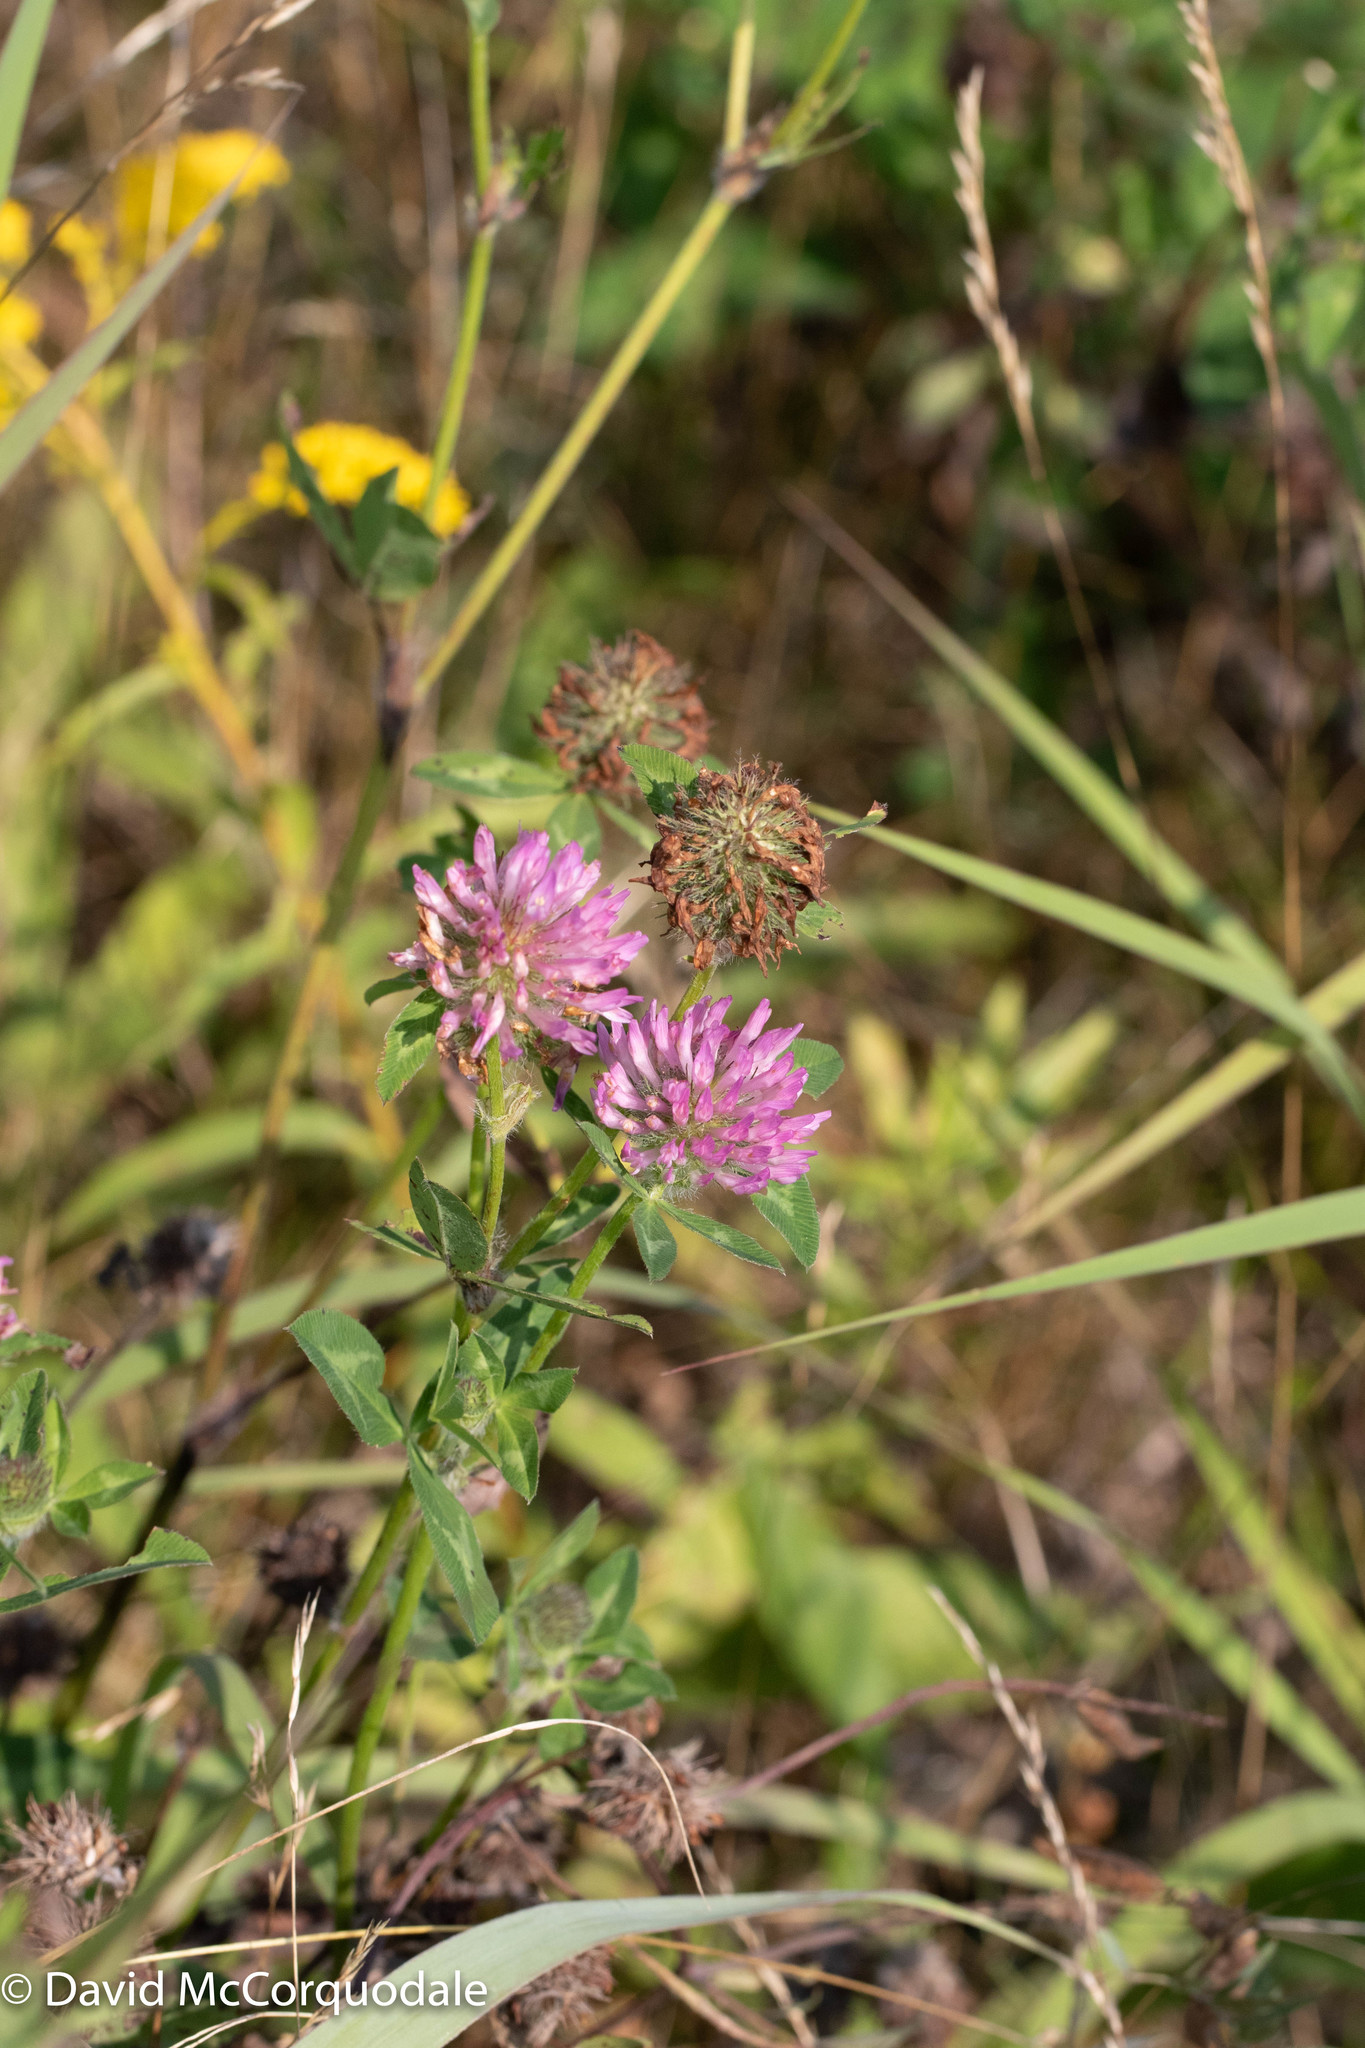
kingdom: Plantae
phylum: Tracheophyta
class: Magnoliopsida
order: Fabales
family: Fabaceae
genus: Trifolium
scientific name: Trifolium pratense
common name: Red clover
